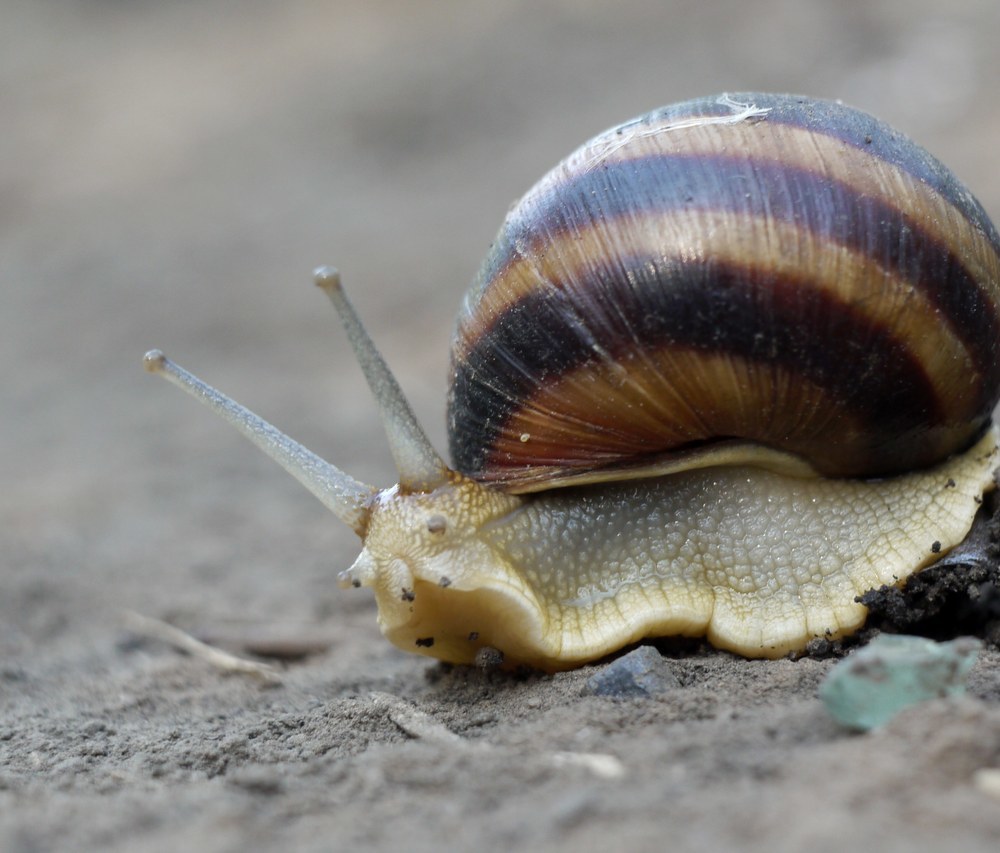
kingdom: Animalia
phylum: Mollusca
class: Gastropoda
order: Stylommatophora
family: Helicidae
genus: Helix
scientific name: Helix albescens
